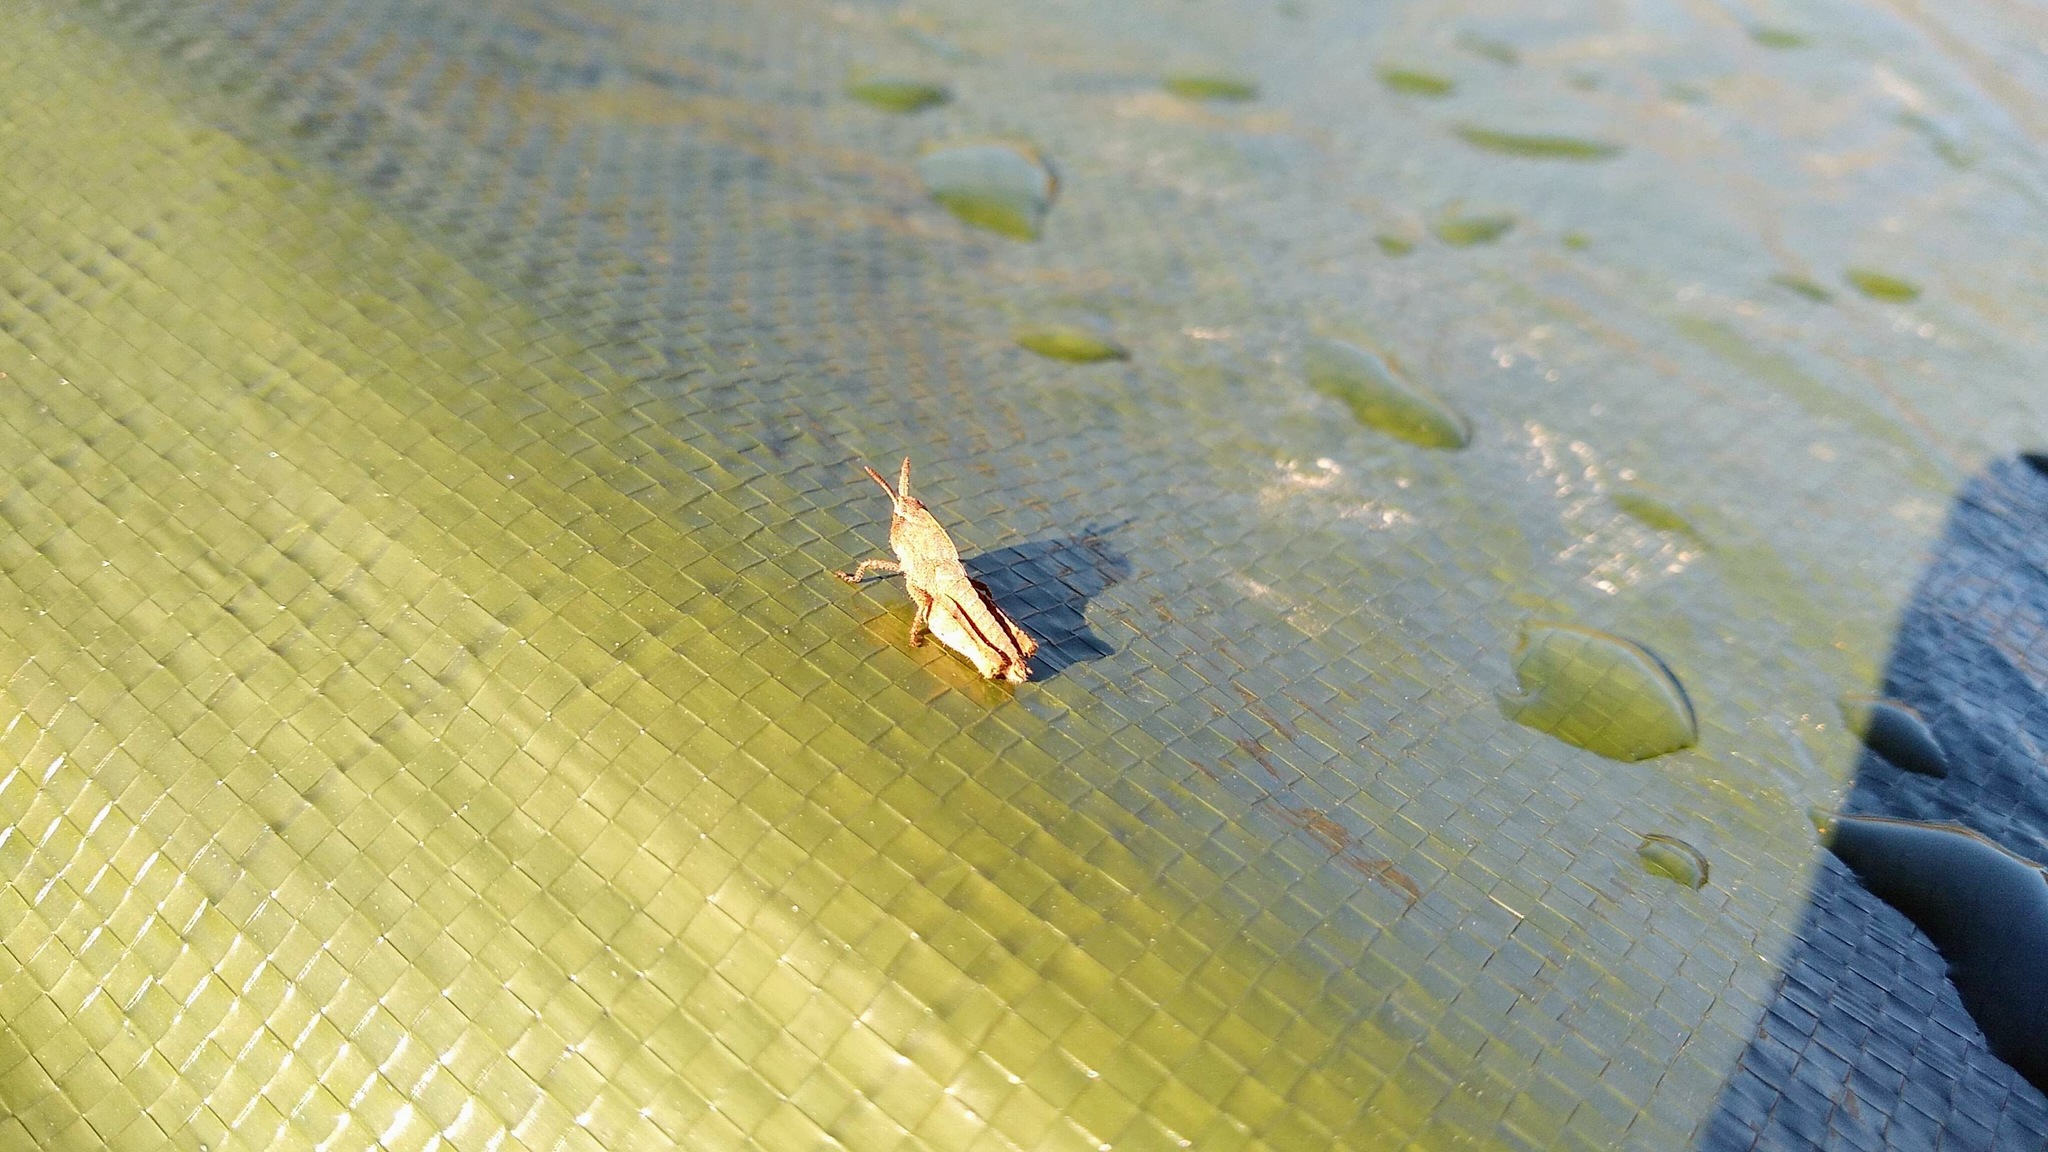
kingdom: Animalia
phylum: Arthropoda
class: Insecta
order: Orthoptera
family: Acrididae
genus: Chortophaga
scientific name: Chortophaga viridifasciata
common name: Green-striped grasshopper
